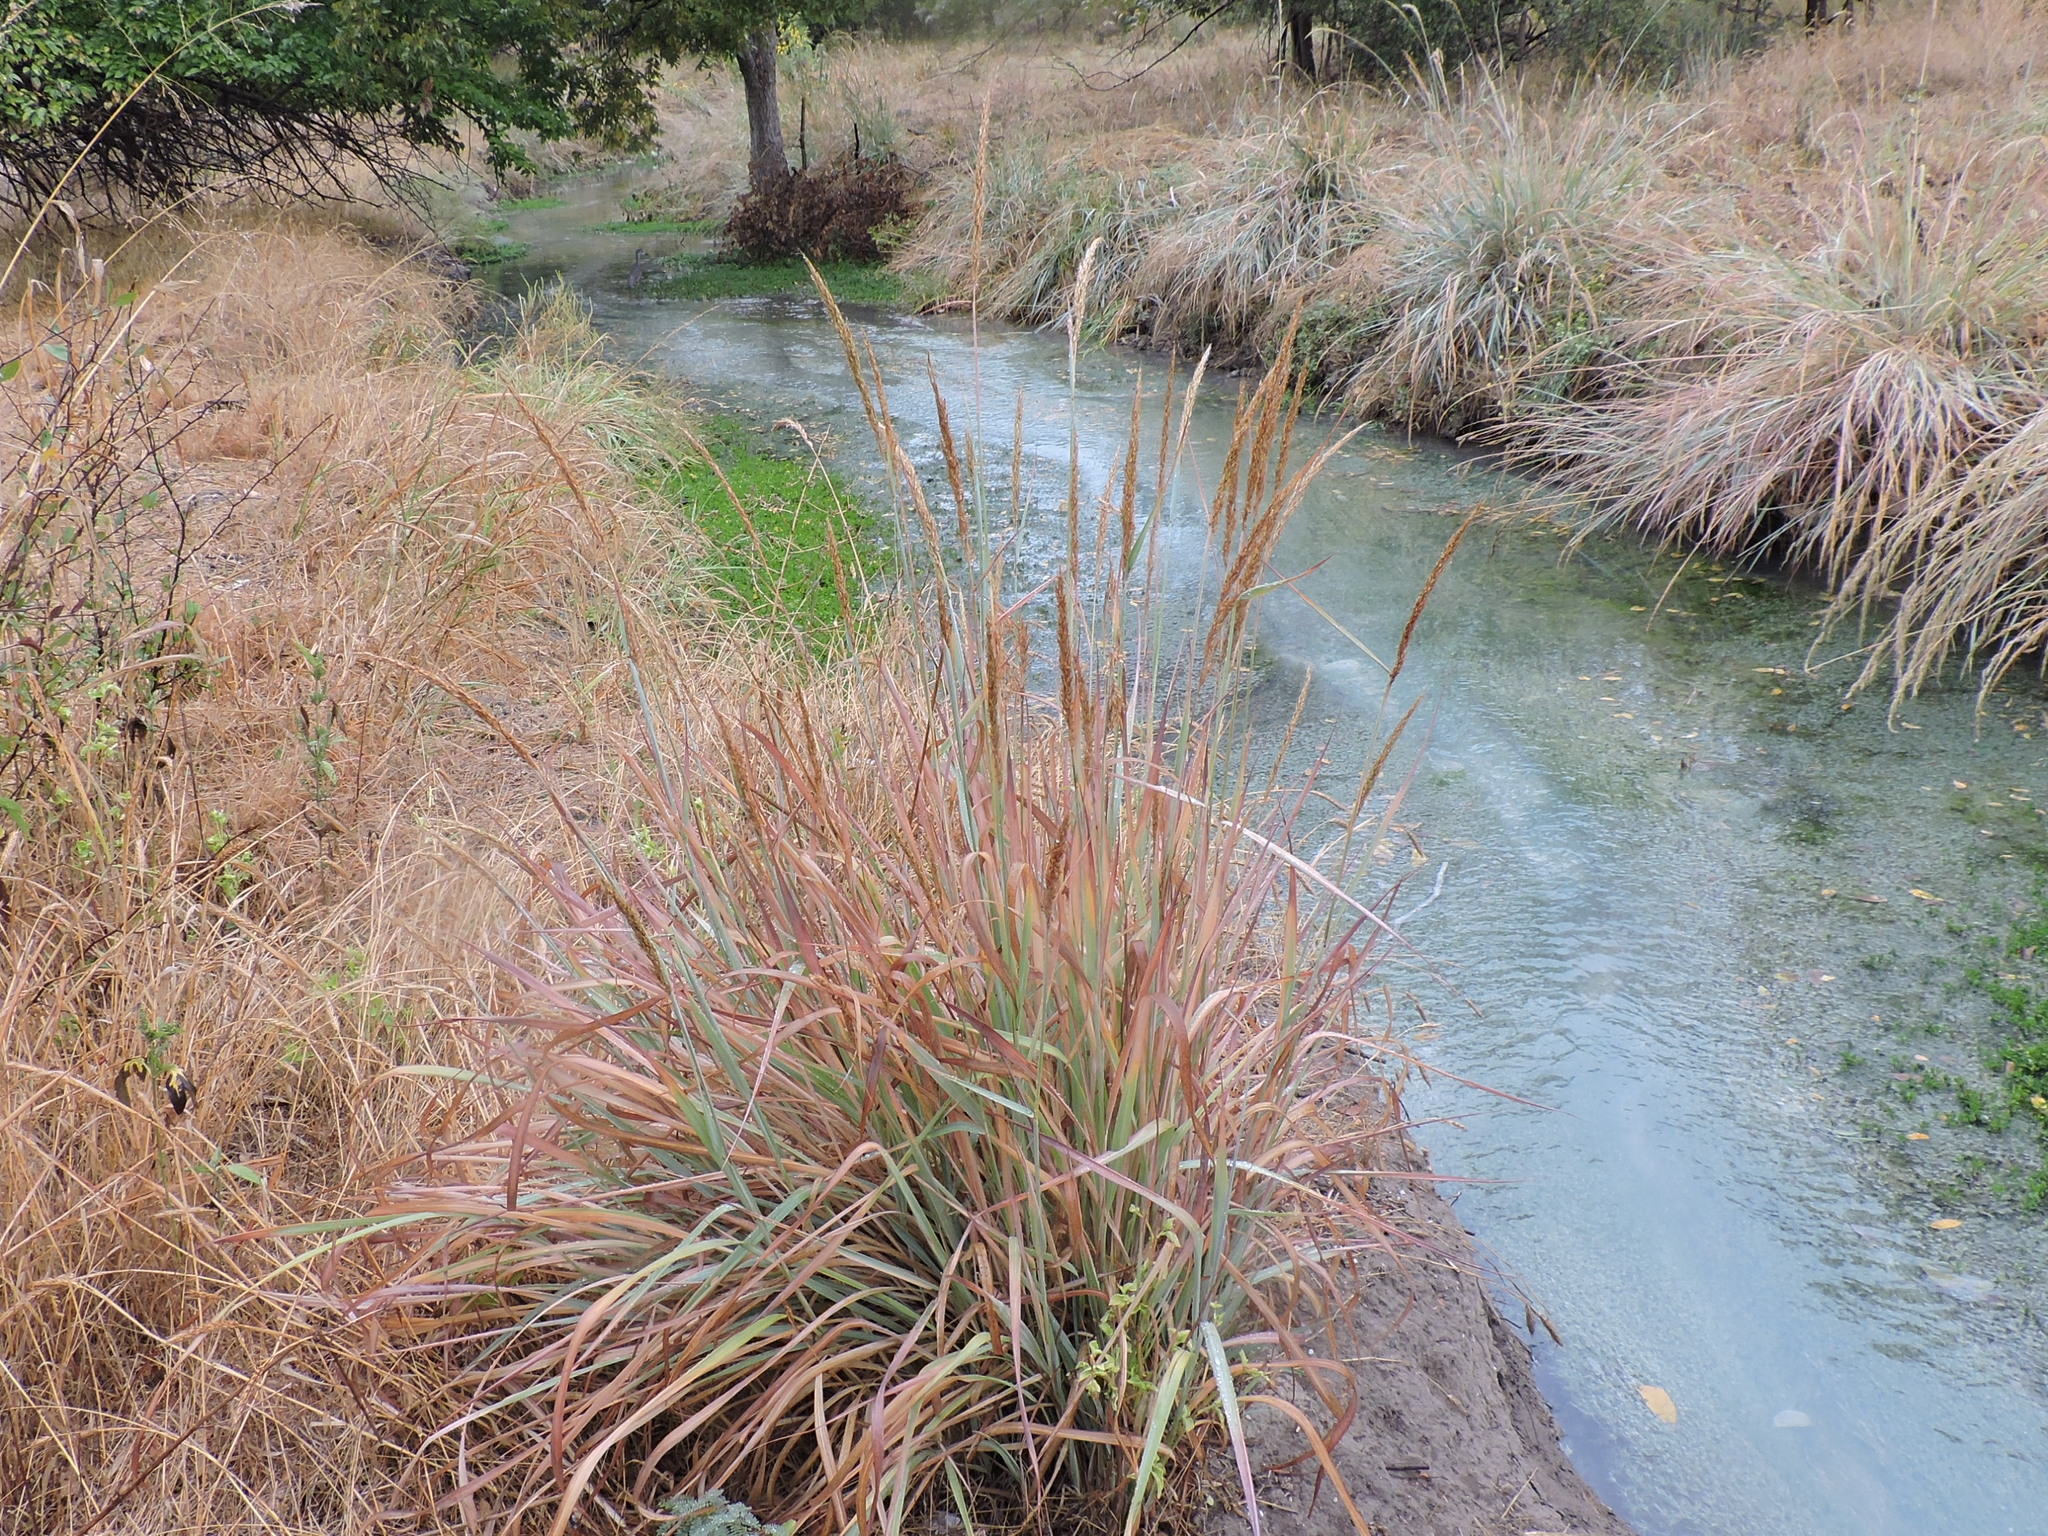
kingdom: Plantae
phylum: Tracheophyta
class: Liliopsida
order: Poales
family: Poaceae
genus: Sorghastrum
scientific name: Sorghastrum nutans
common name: Indian grass
